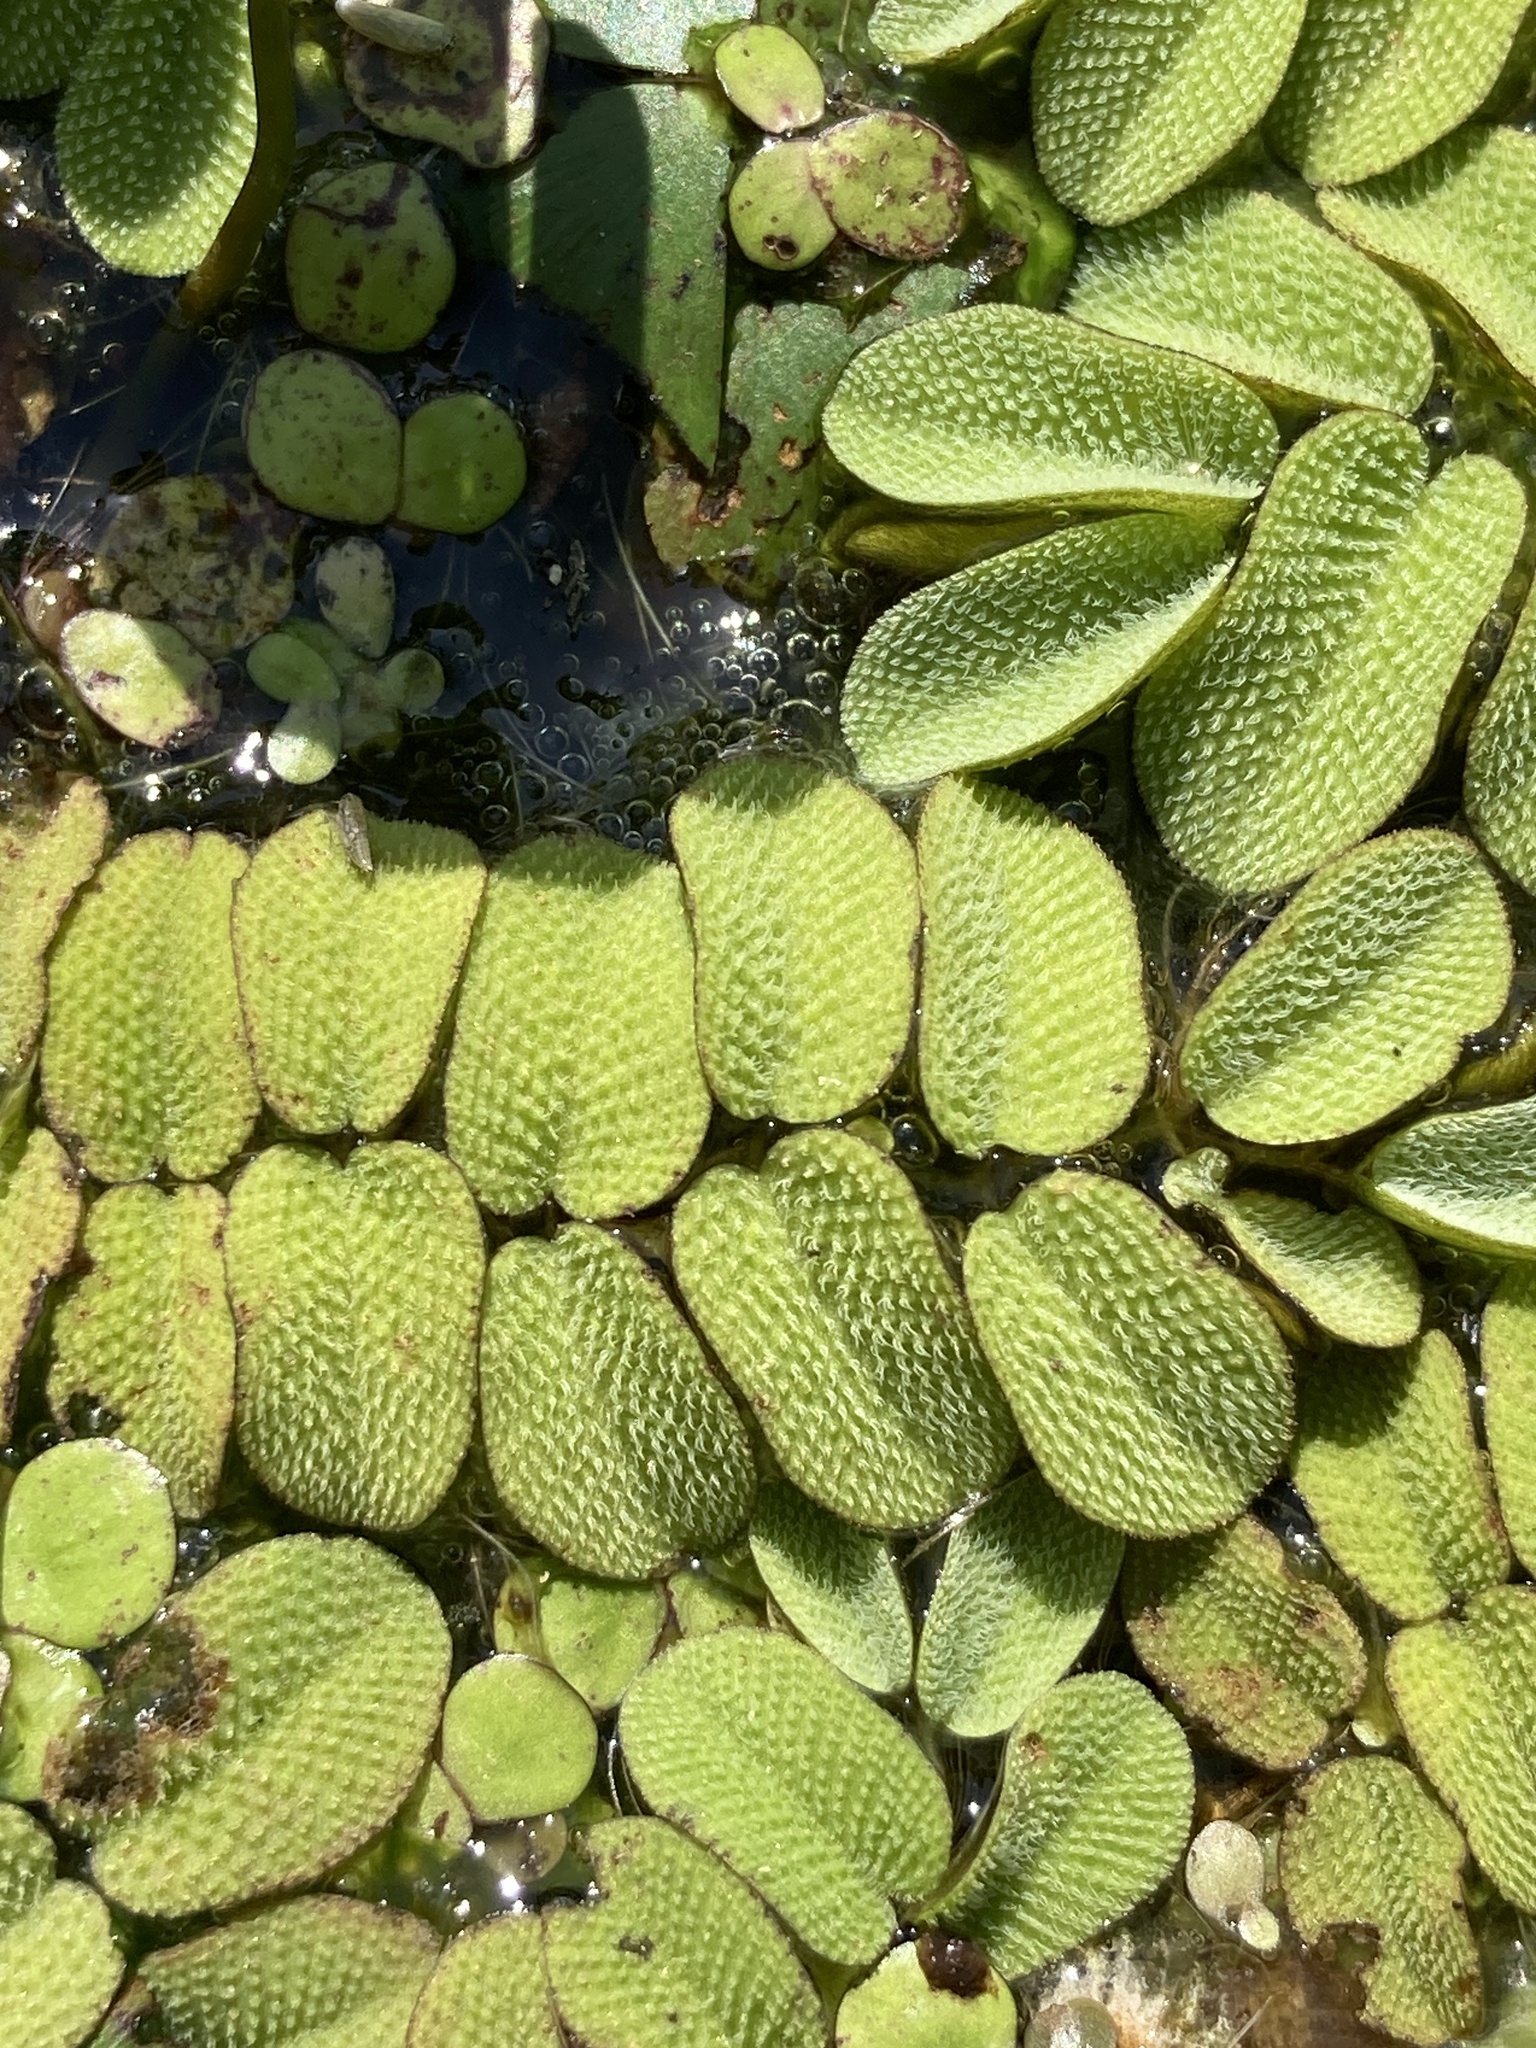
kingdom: Plantae
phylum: Tracheophyta
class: Polypodiopsida
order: Salviniales
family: Salviniaceae
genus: Salvinia
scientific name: Salvinia natans
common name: Floating fern
